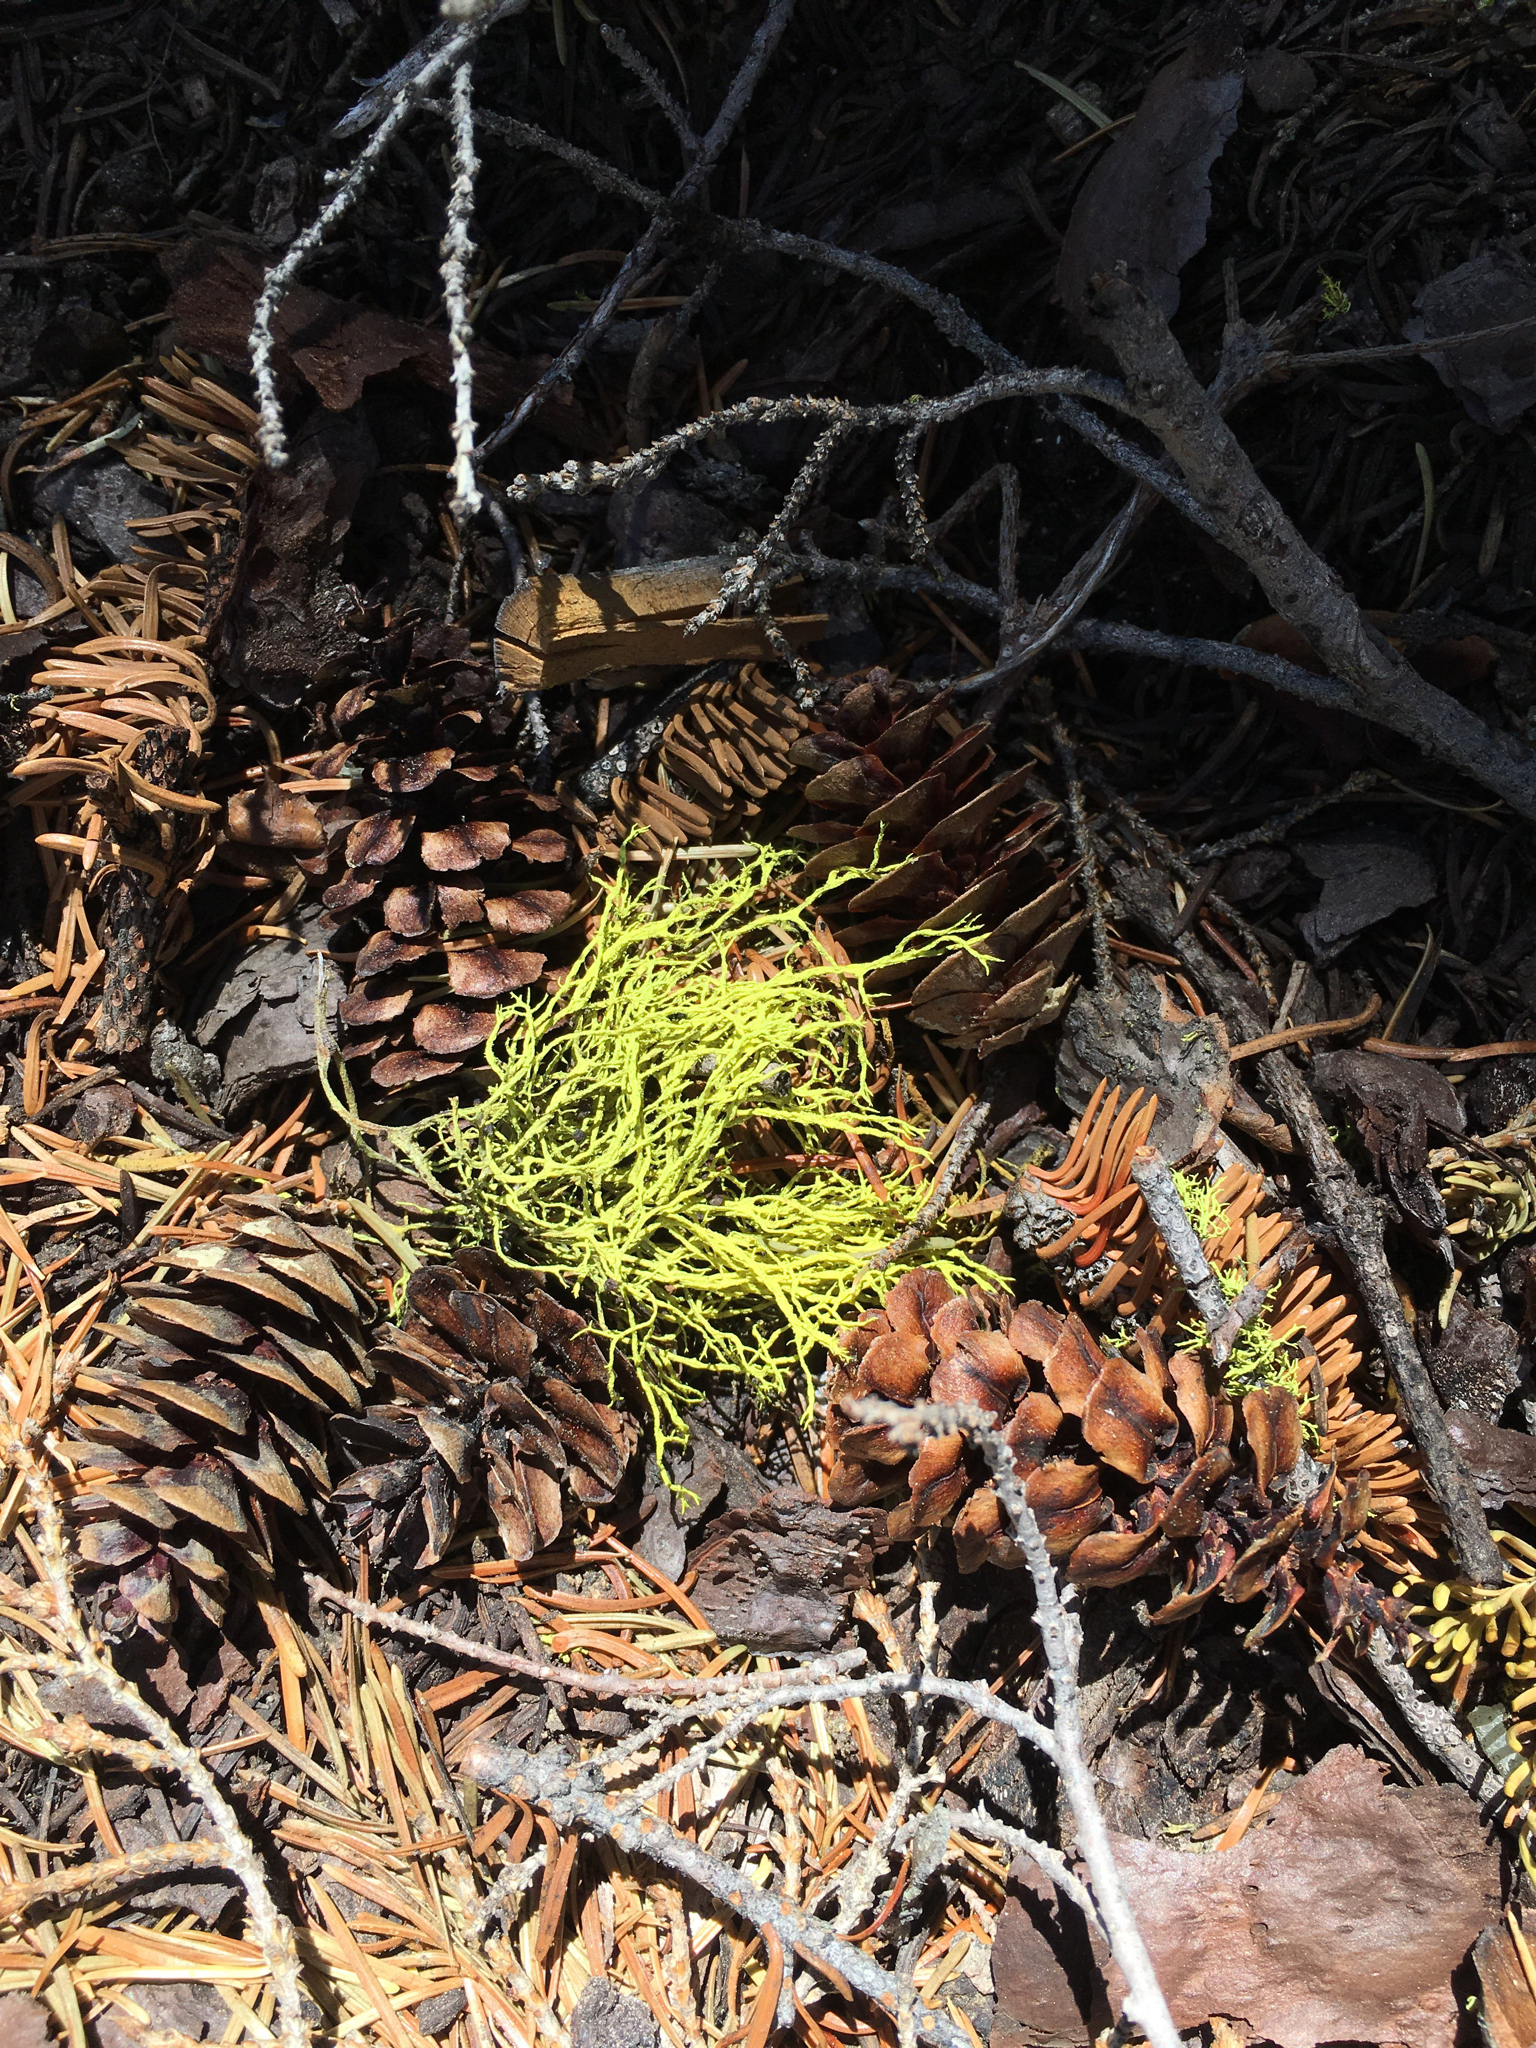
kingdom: Fungi
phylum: Ascomycota
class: Lecanoromycetes
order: Lecanorales
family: Parmeliaceae
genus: Letharia
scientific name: Letharia vulpina
